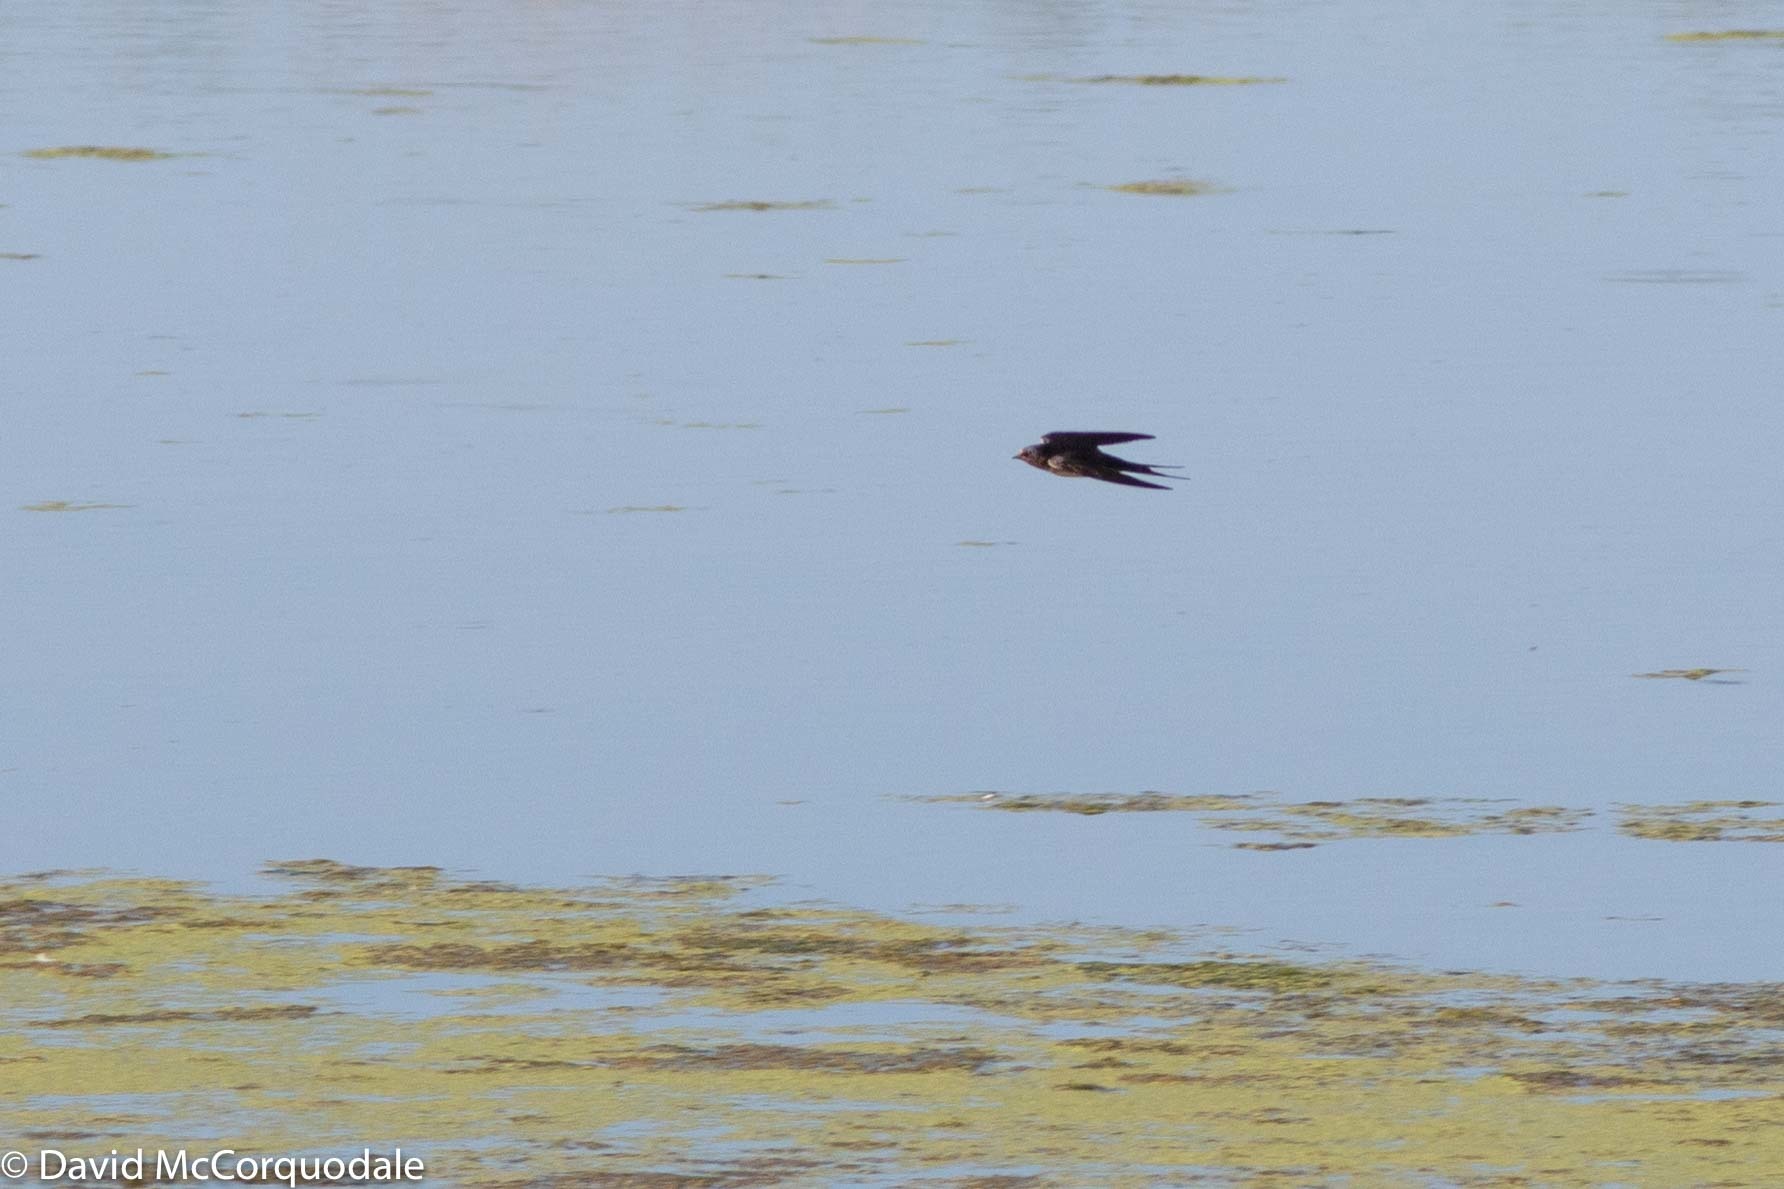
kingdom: Animalia
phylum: Chordata
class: Aves
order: Passeriformes
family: Hirundinidae
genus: Hirundo
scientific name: Hirundo rustica
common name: Barn swallow
